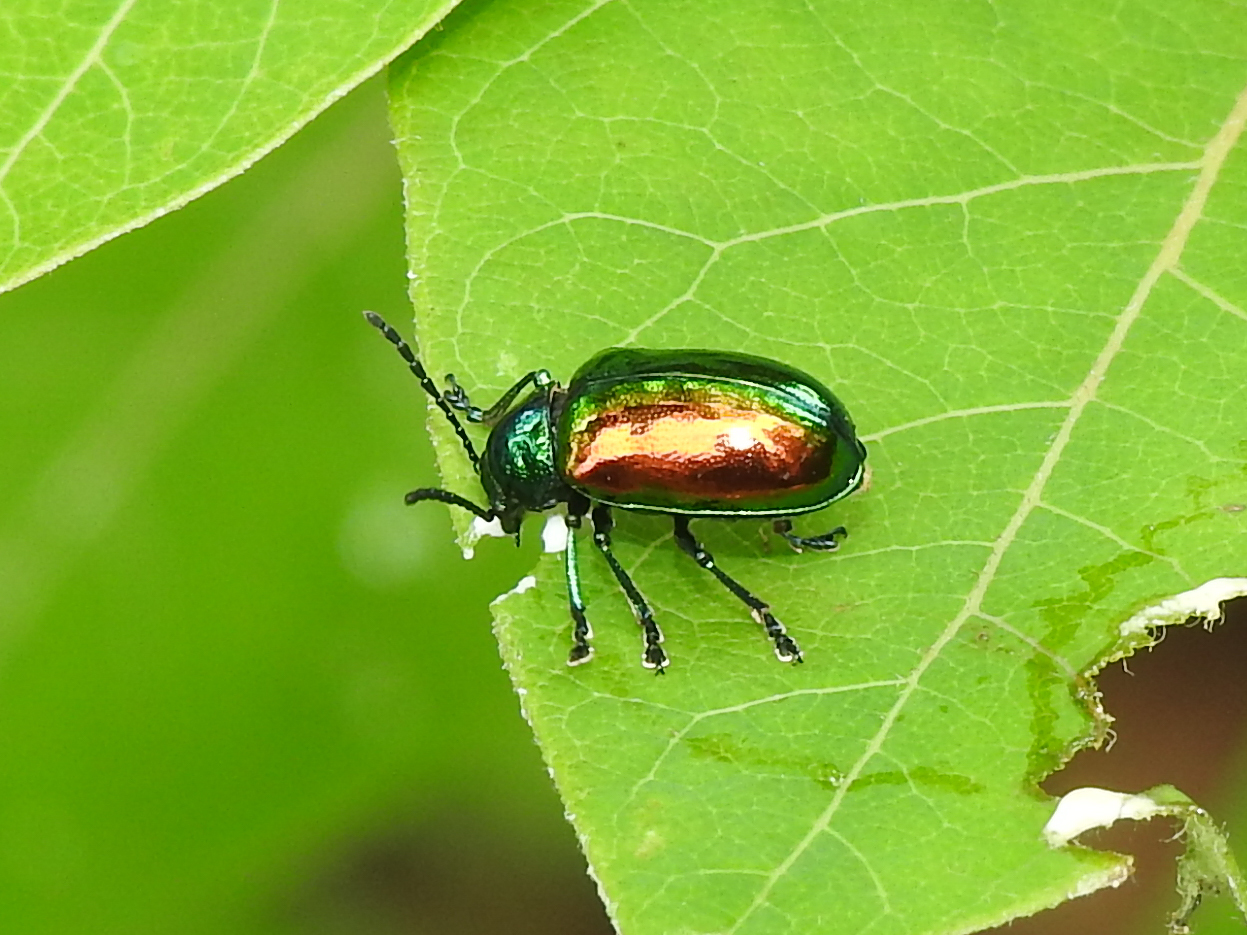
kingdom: Animalia
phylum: Arthropoda
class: Insecta
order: Coleoptera
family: Chrysomelidae
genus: Chrysochus
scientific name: Chrysochus auratus
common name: Dogbane leaf beetle
